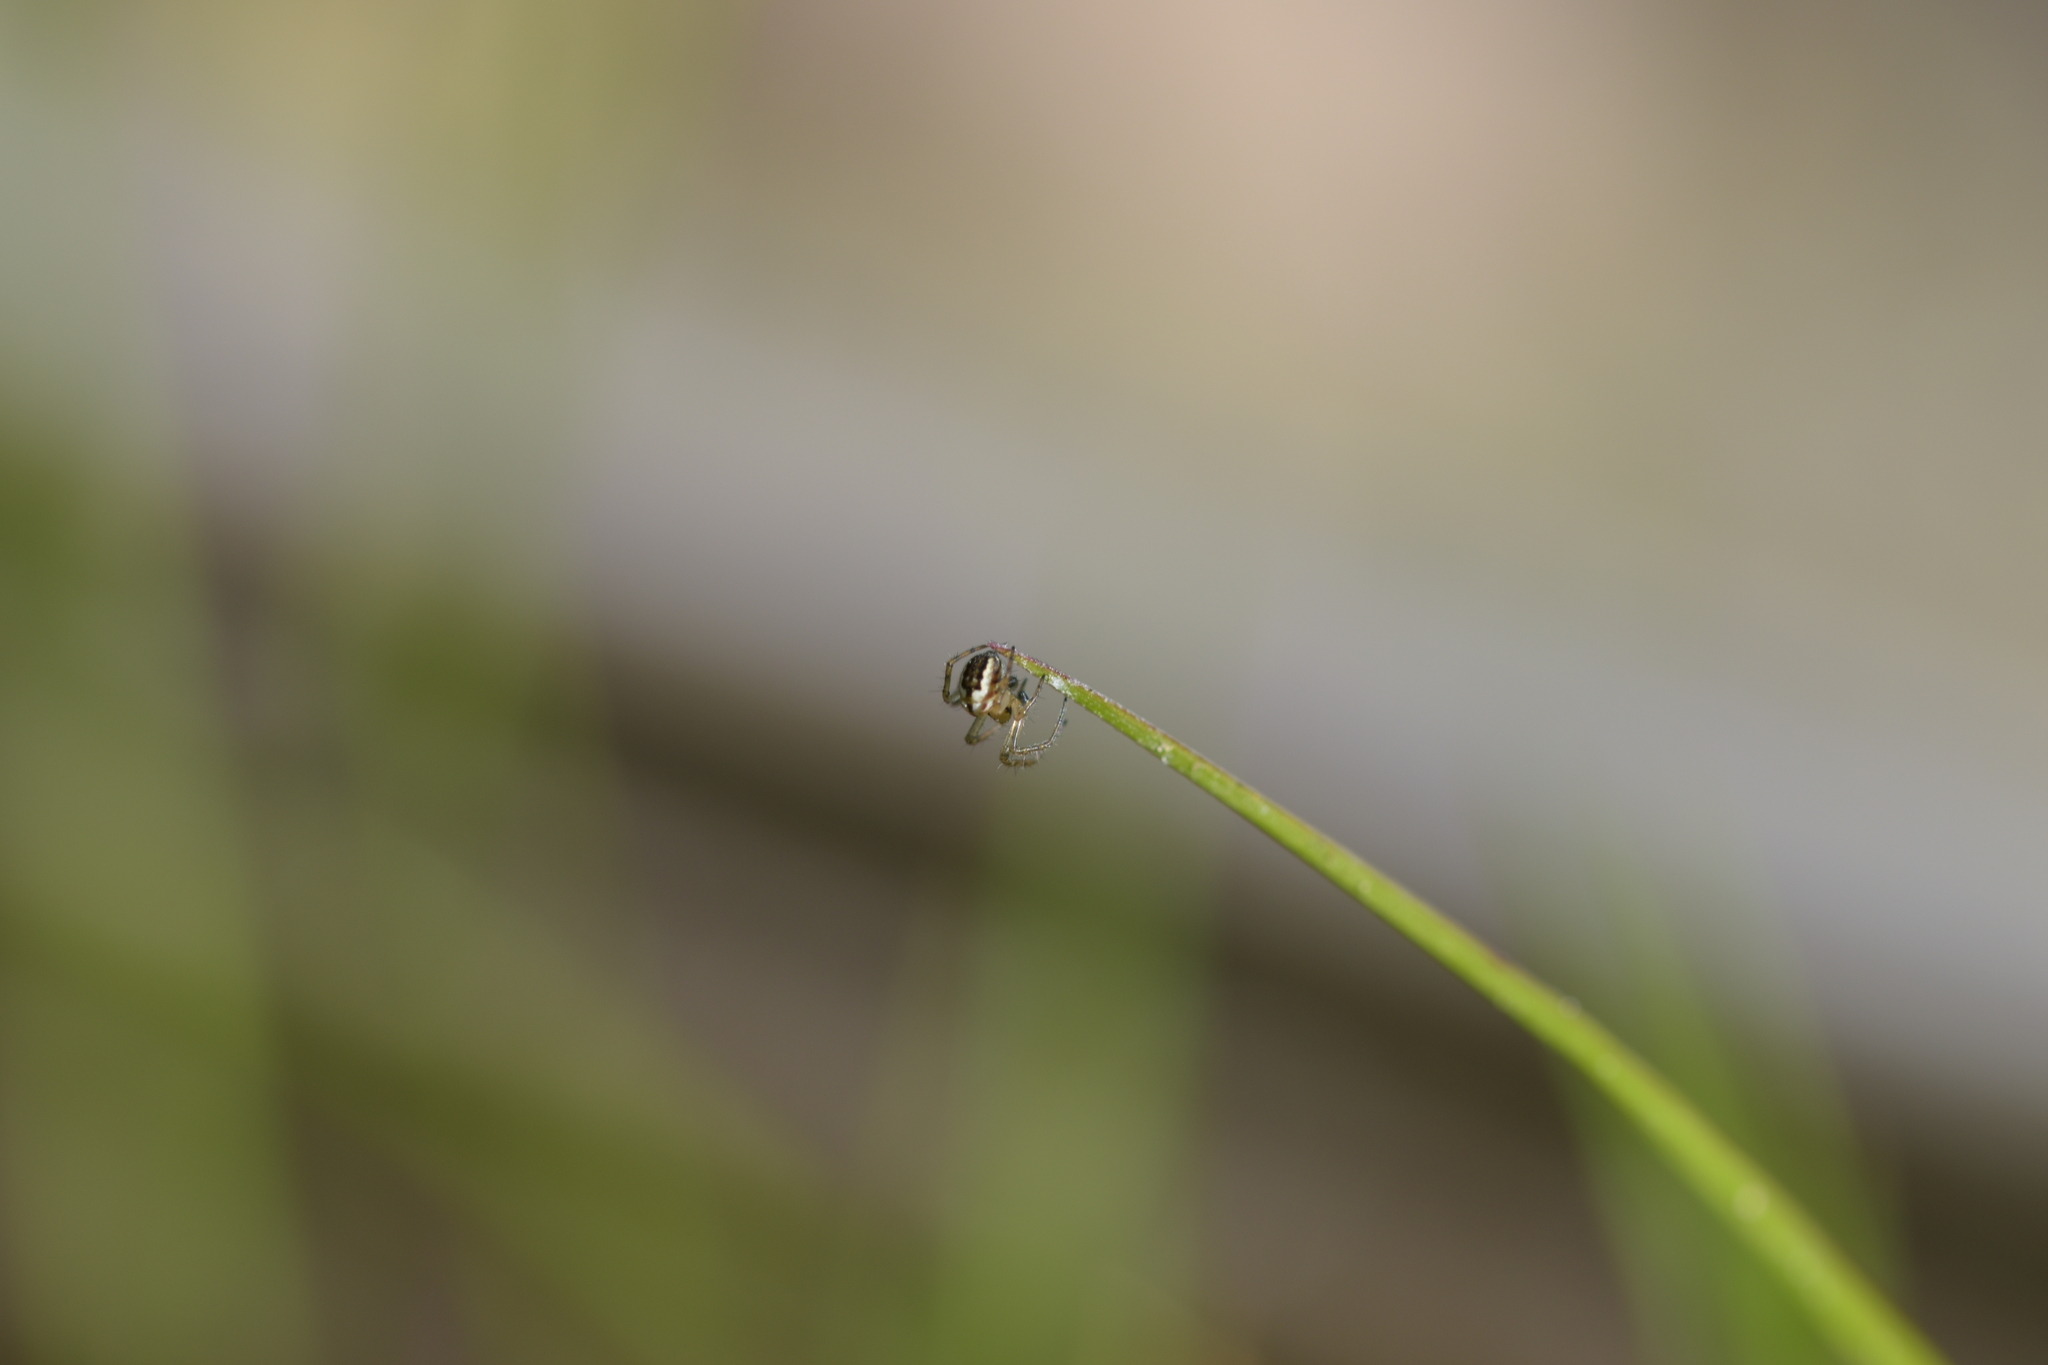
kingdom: Animalia
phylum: Arthropoda
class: Arachnida
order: Araneae
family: Araneidae
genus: Mangora
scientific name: Mangora acalypha
